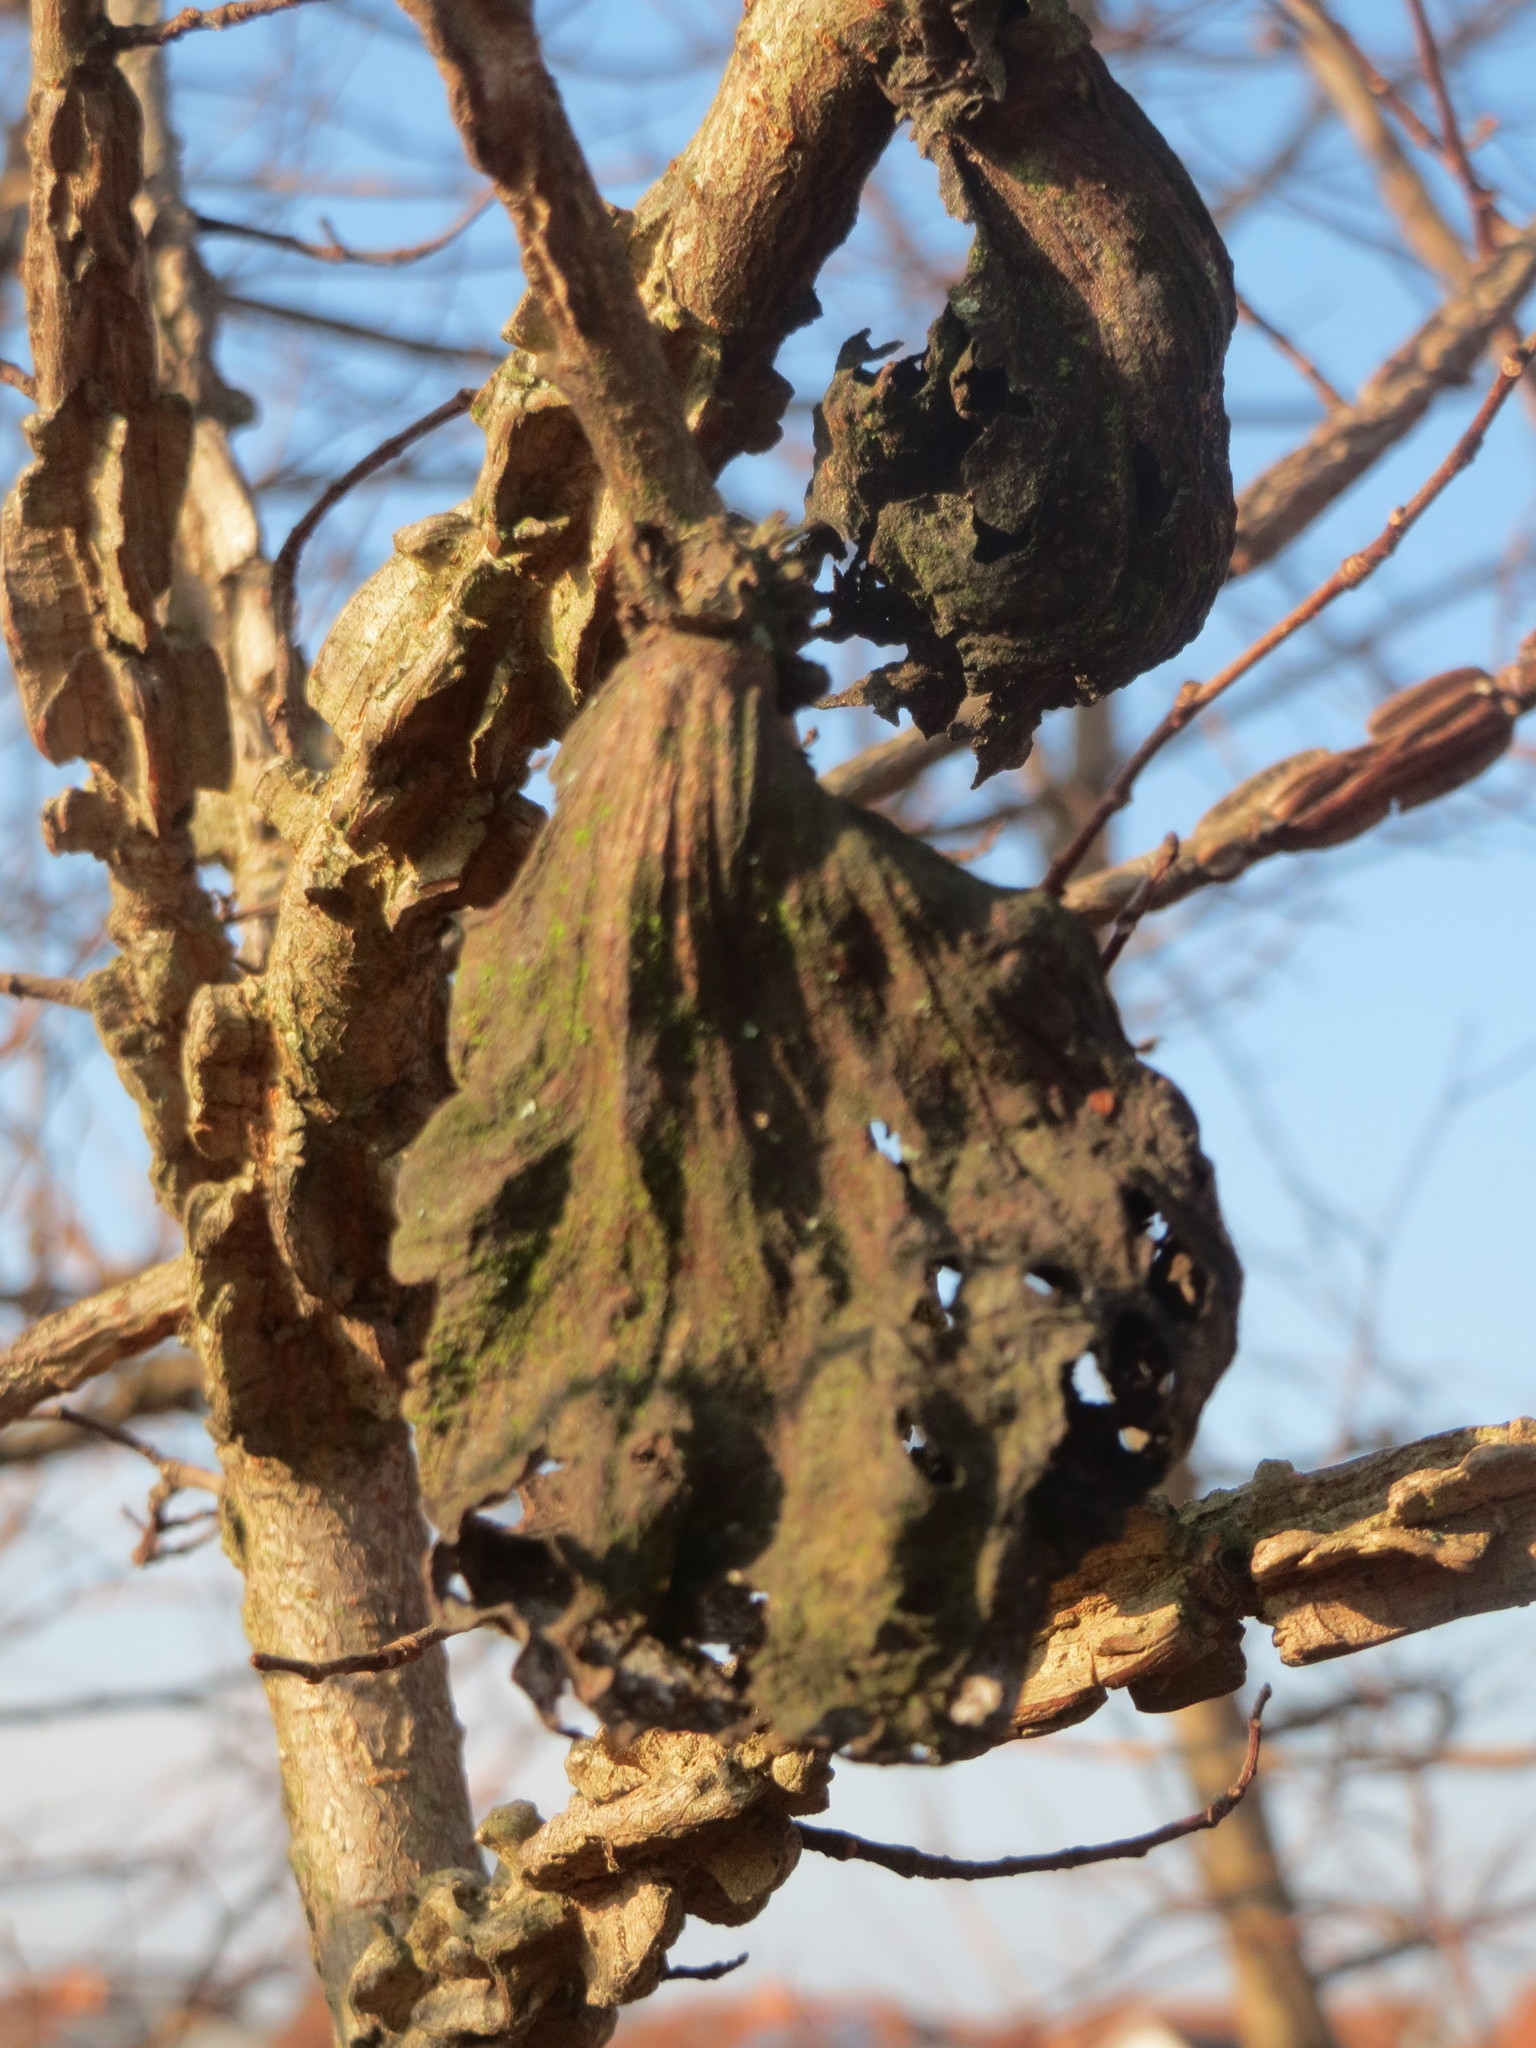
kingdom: Animalia
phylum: Arthropoda
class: Insecta
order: Hemiptera
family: Aphididae
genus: Eriosoma
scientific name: Eriosoma lanuginosum
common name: Aphid
